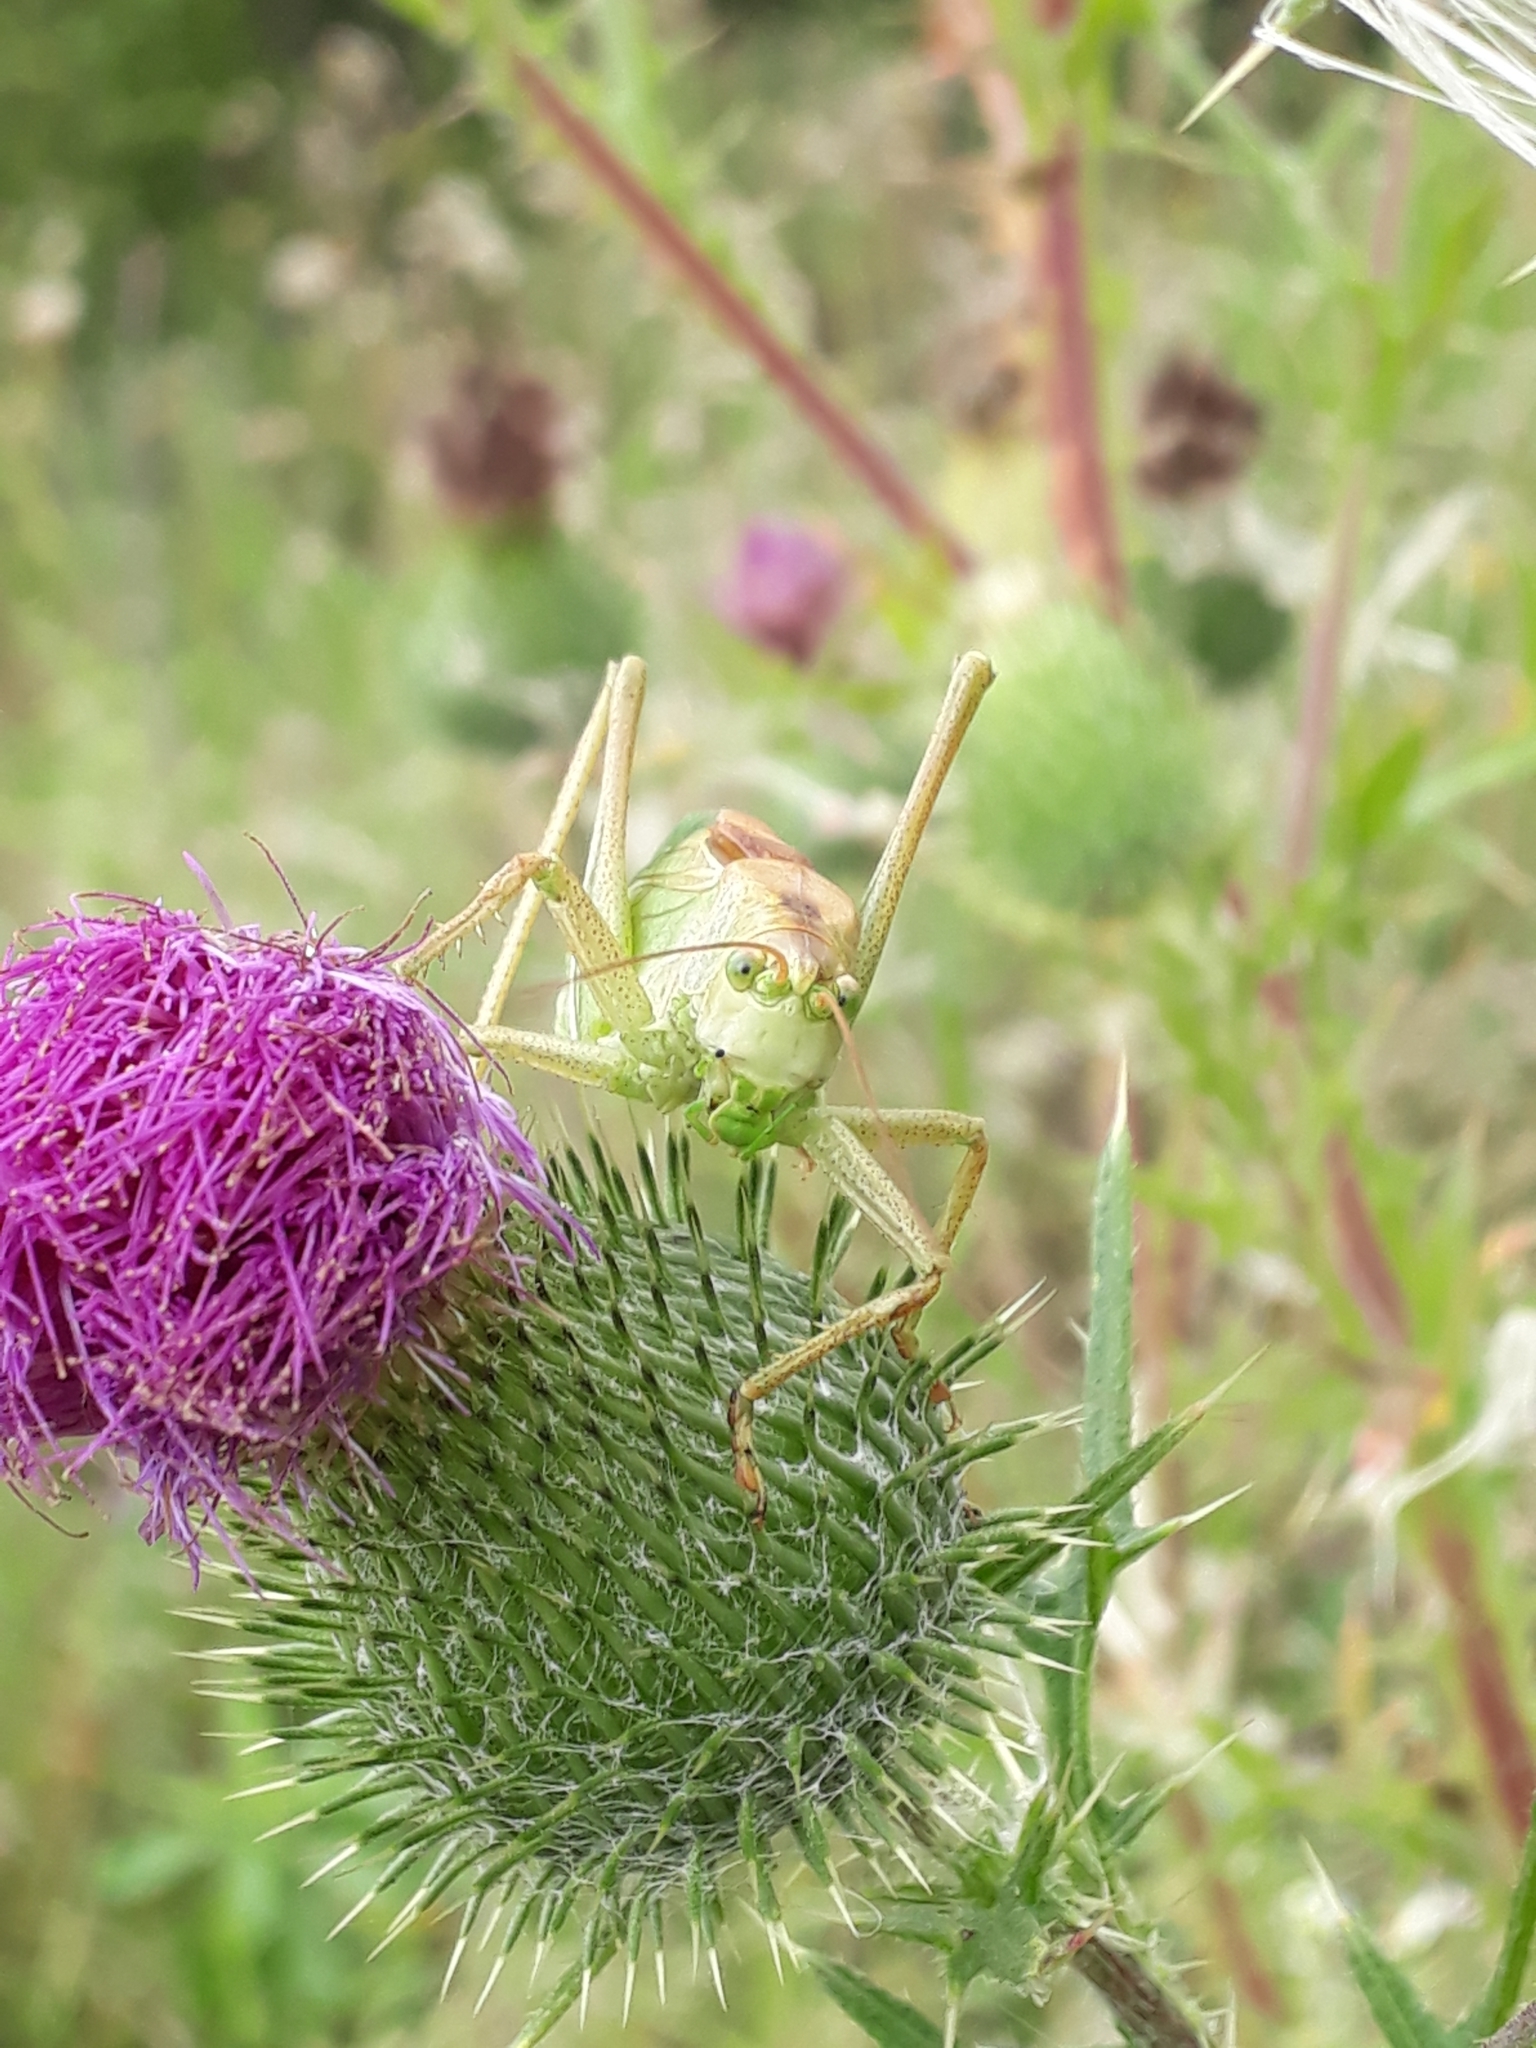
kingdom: Animalia
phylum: Arthropoda
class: Insecta
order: Orthoptera
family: Tettigoniidae
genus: Tettigonia
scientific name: Tettigonia cantans
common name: Upland green bush-cricket
